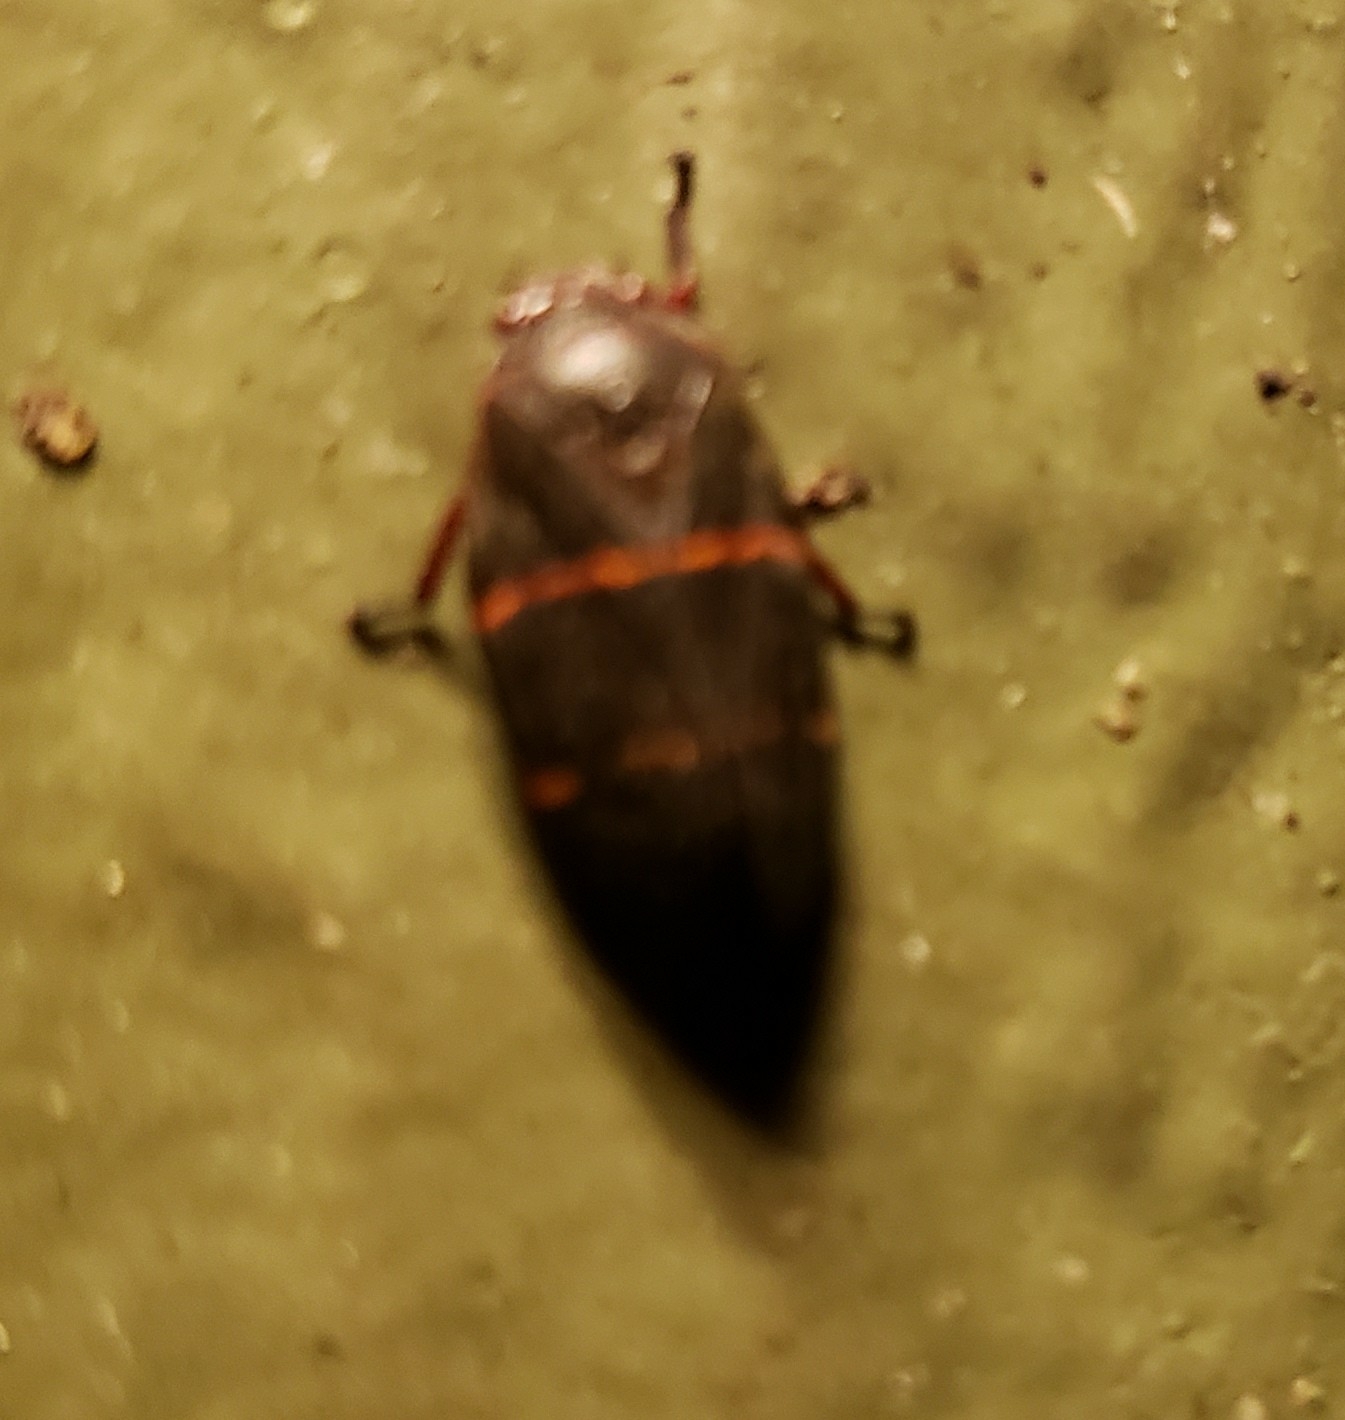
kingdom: Animalia
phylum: Arthropoda
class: Insecta
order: Hemiptera
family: Cercopidae
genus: Prosapia
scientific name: Prosapia bicincta
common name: Twolined spittlebug
